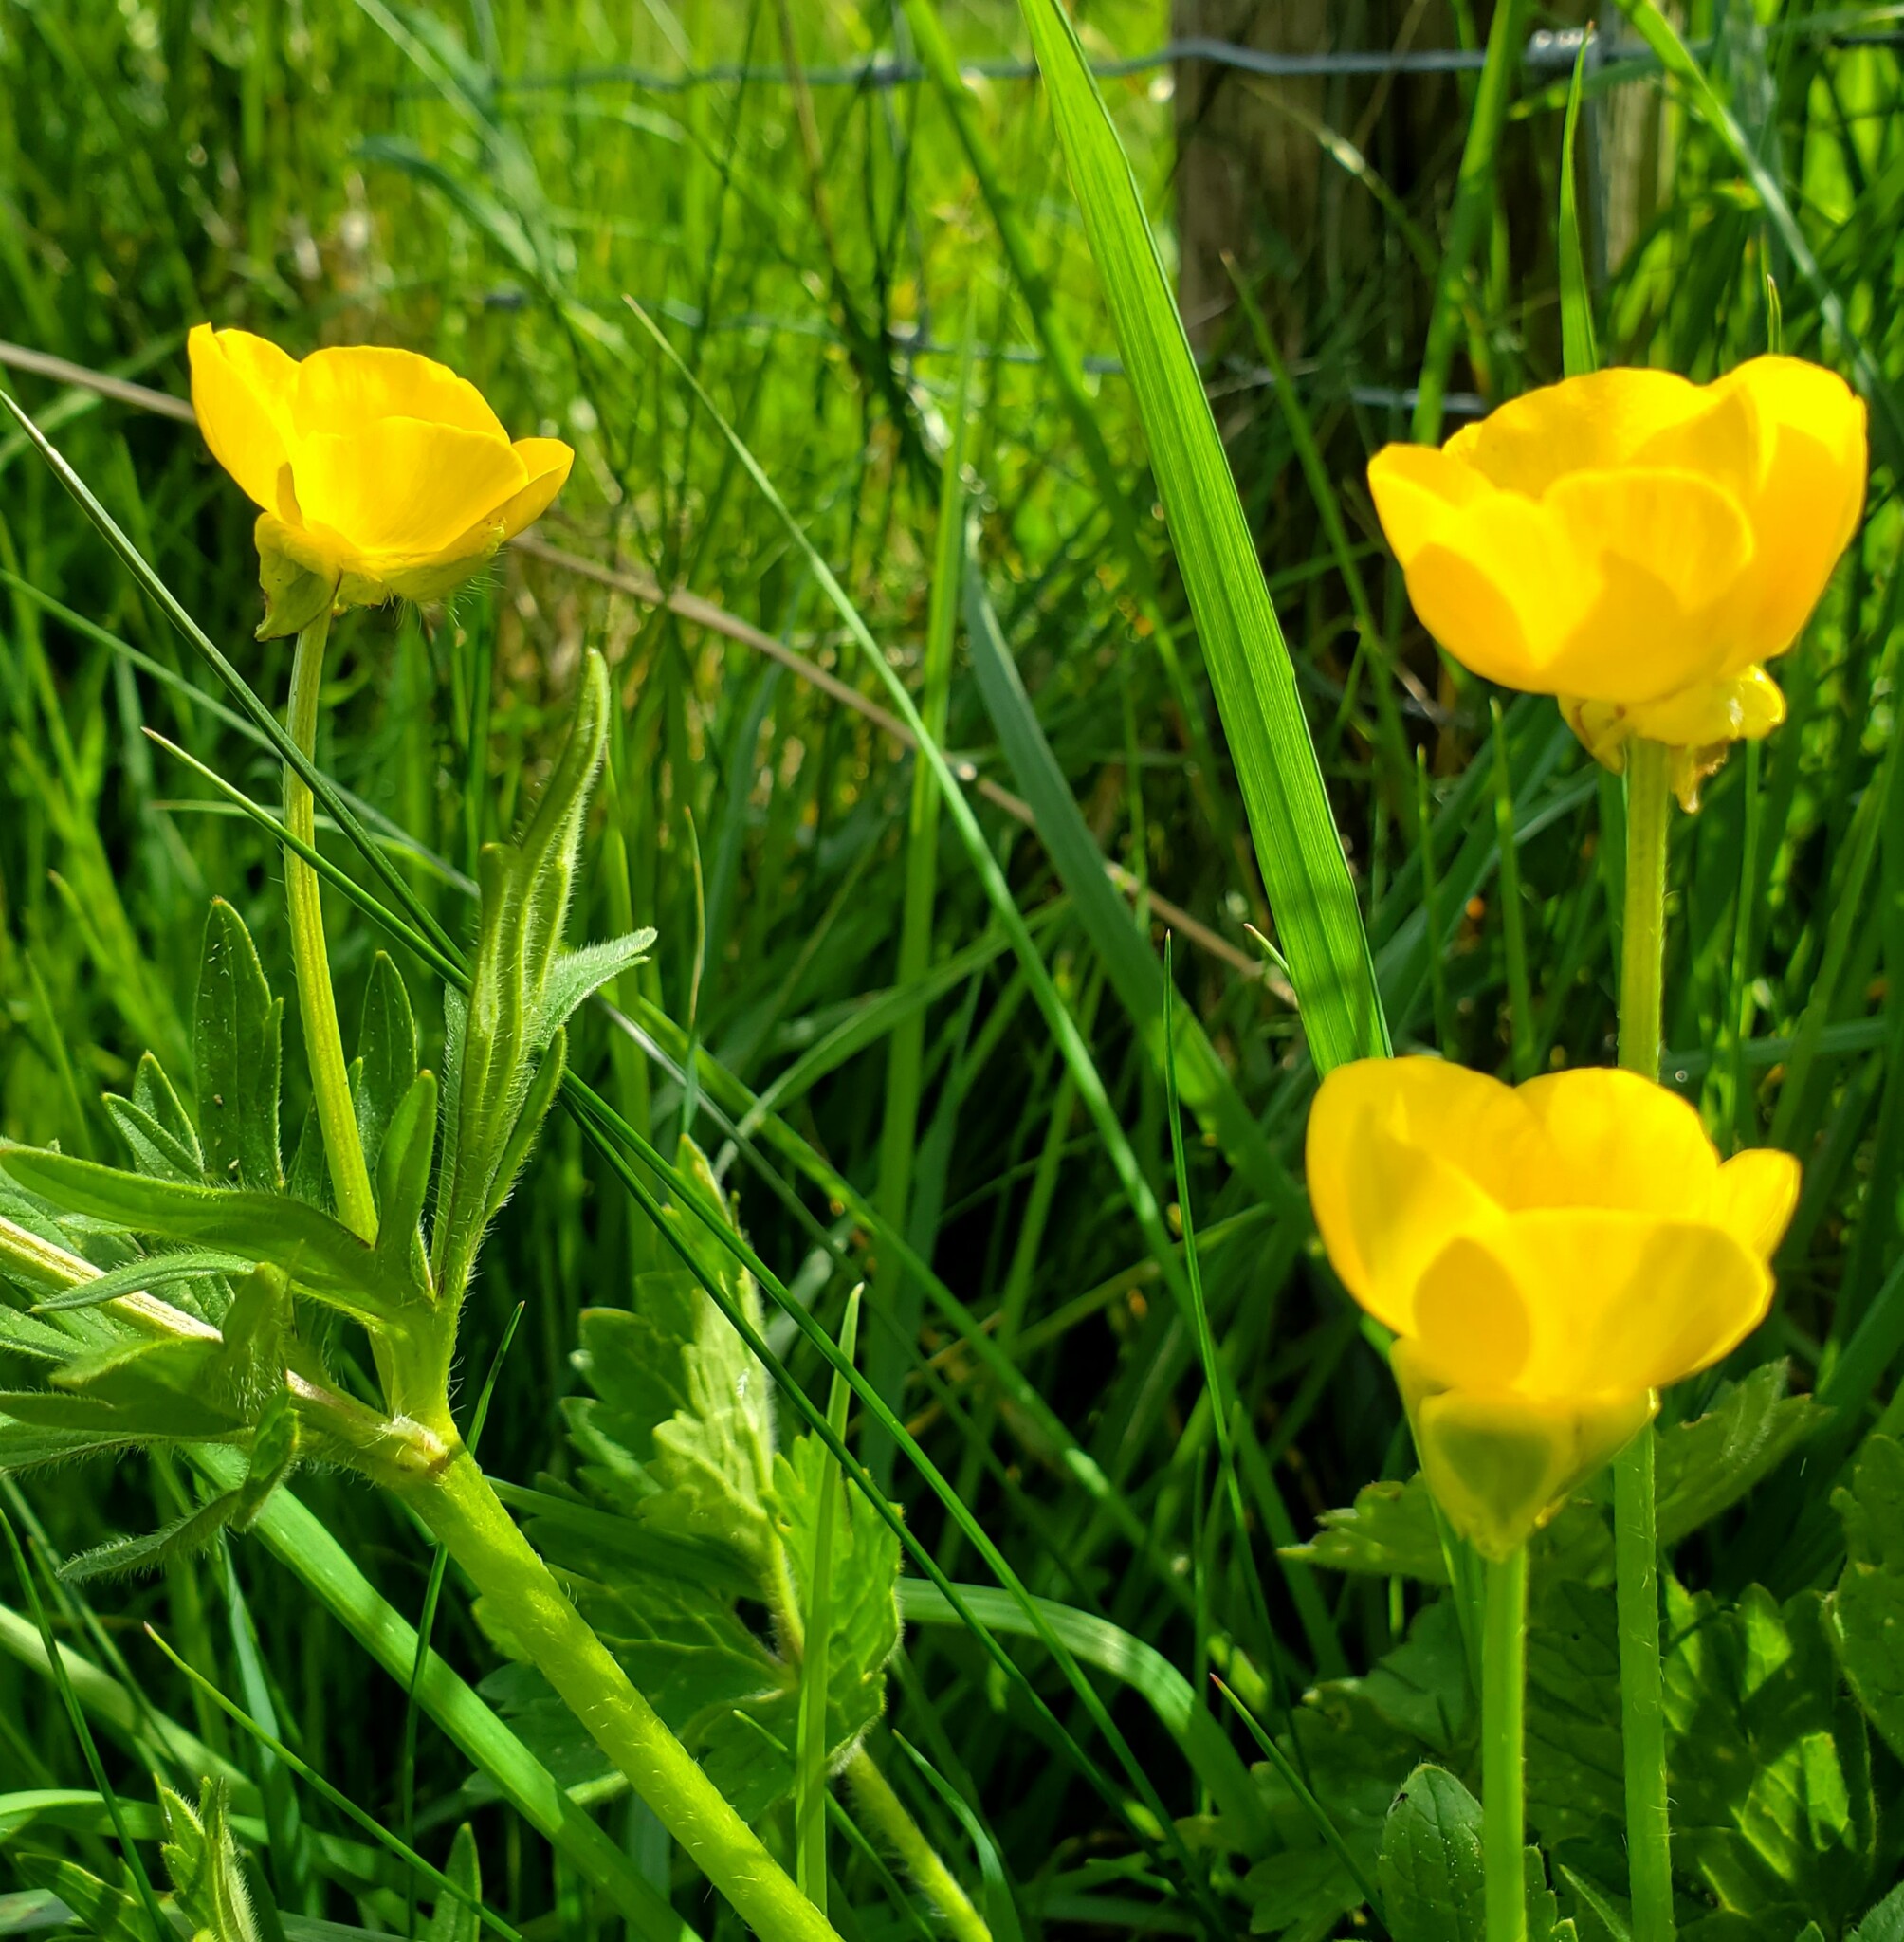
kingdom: Plantae
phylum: Tracheophyta
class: Magnoliopsida
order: Ranunculales
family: Ranunculaceae
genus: Ranunculus
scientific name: Ranunculus bulbosus
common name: Bulbous buttercup
